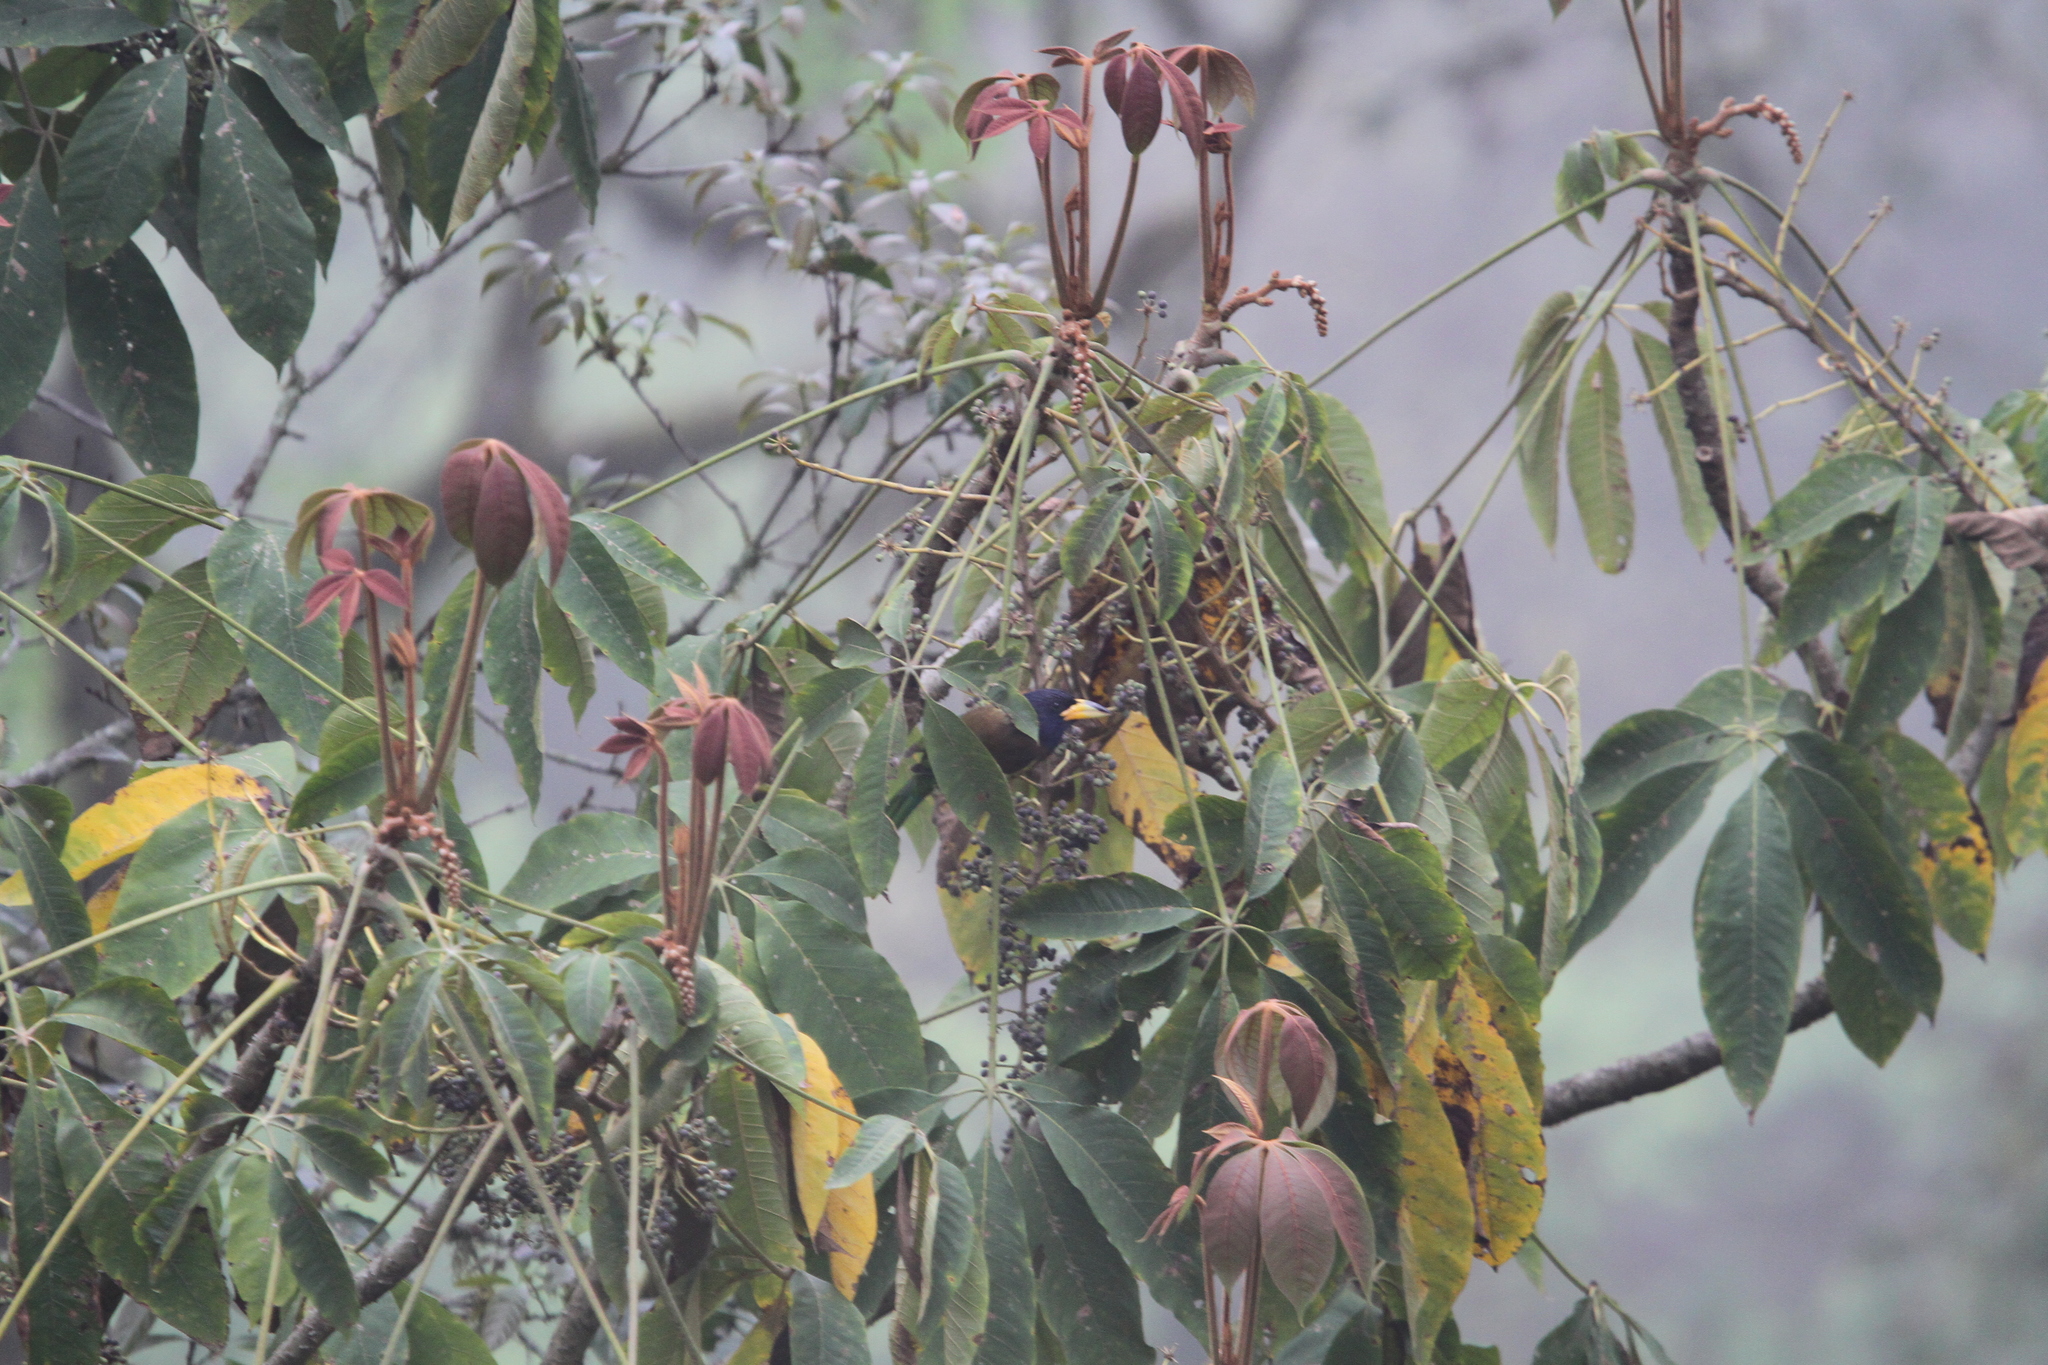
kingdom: Animalia
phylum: Chordata
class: Aves
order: Piciformes
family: Megalaimidae
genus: Psilopogon
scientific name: Psilopogon virens
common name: Great barbet
